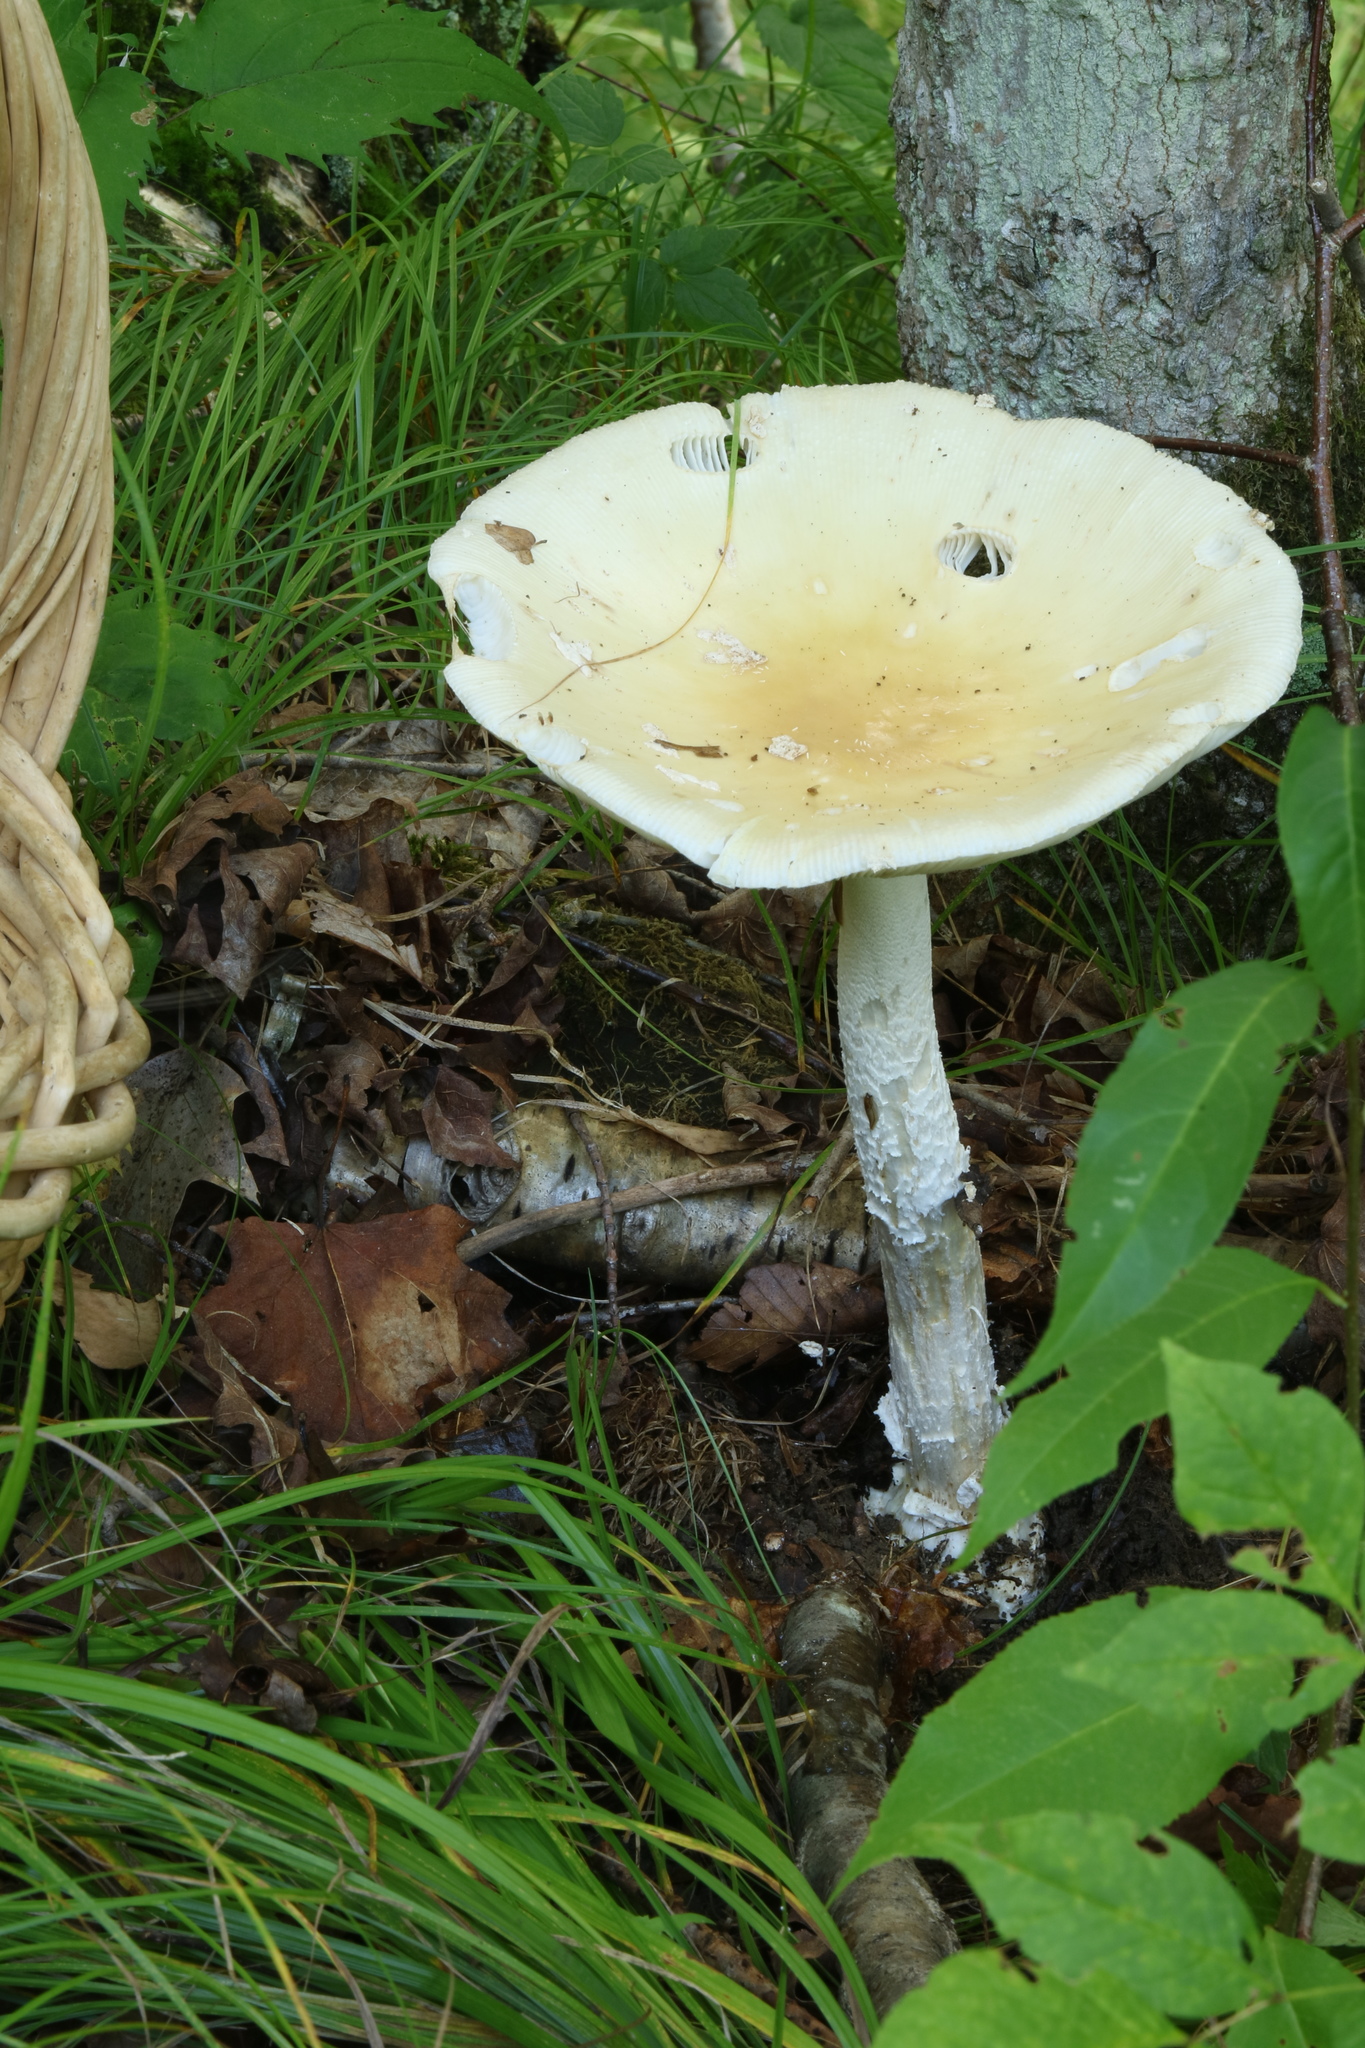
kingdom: Fungi
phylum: Basidiomycota
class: Agaricomycetes
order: Agaricales
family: Amanitaceae
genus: Amanita
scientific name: Amanita velatipes
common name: Great funnel-veil amanita
